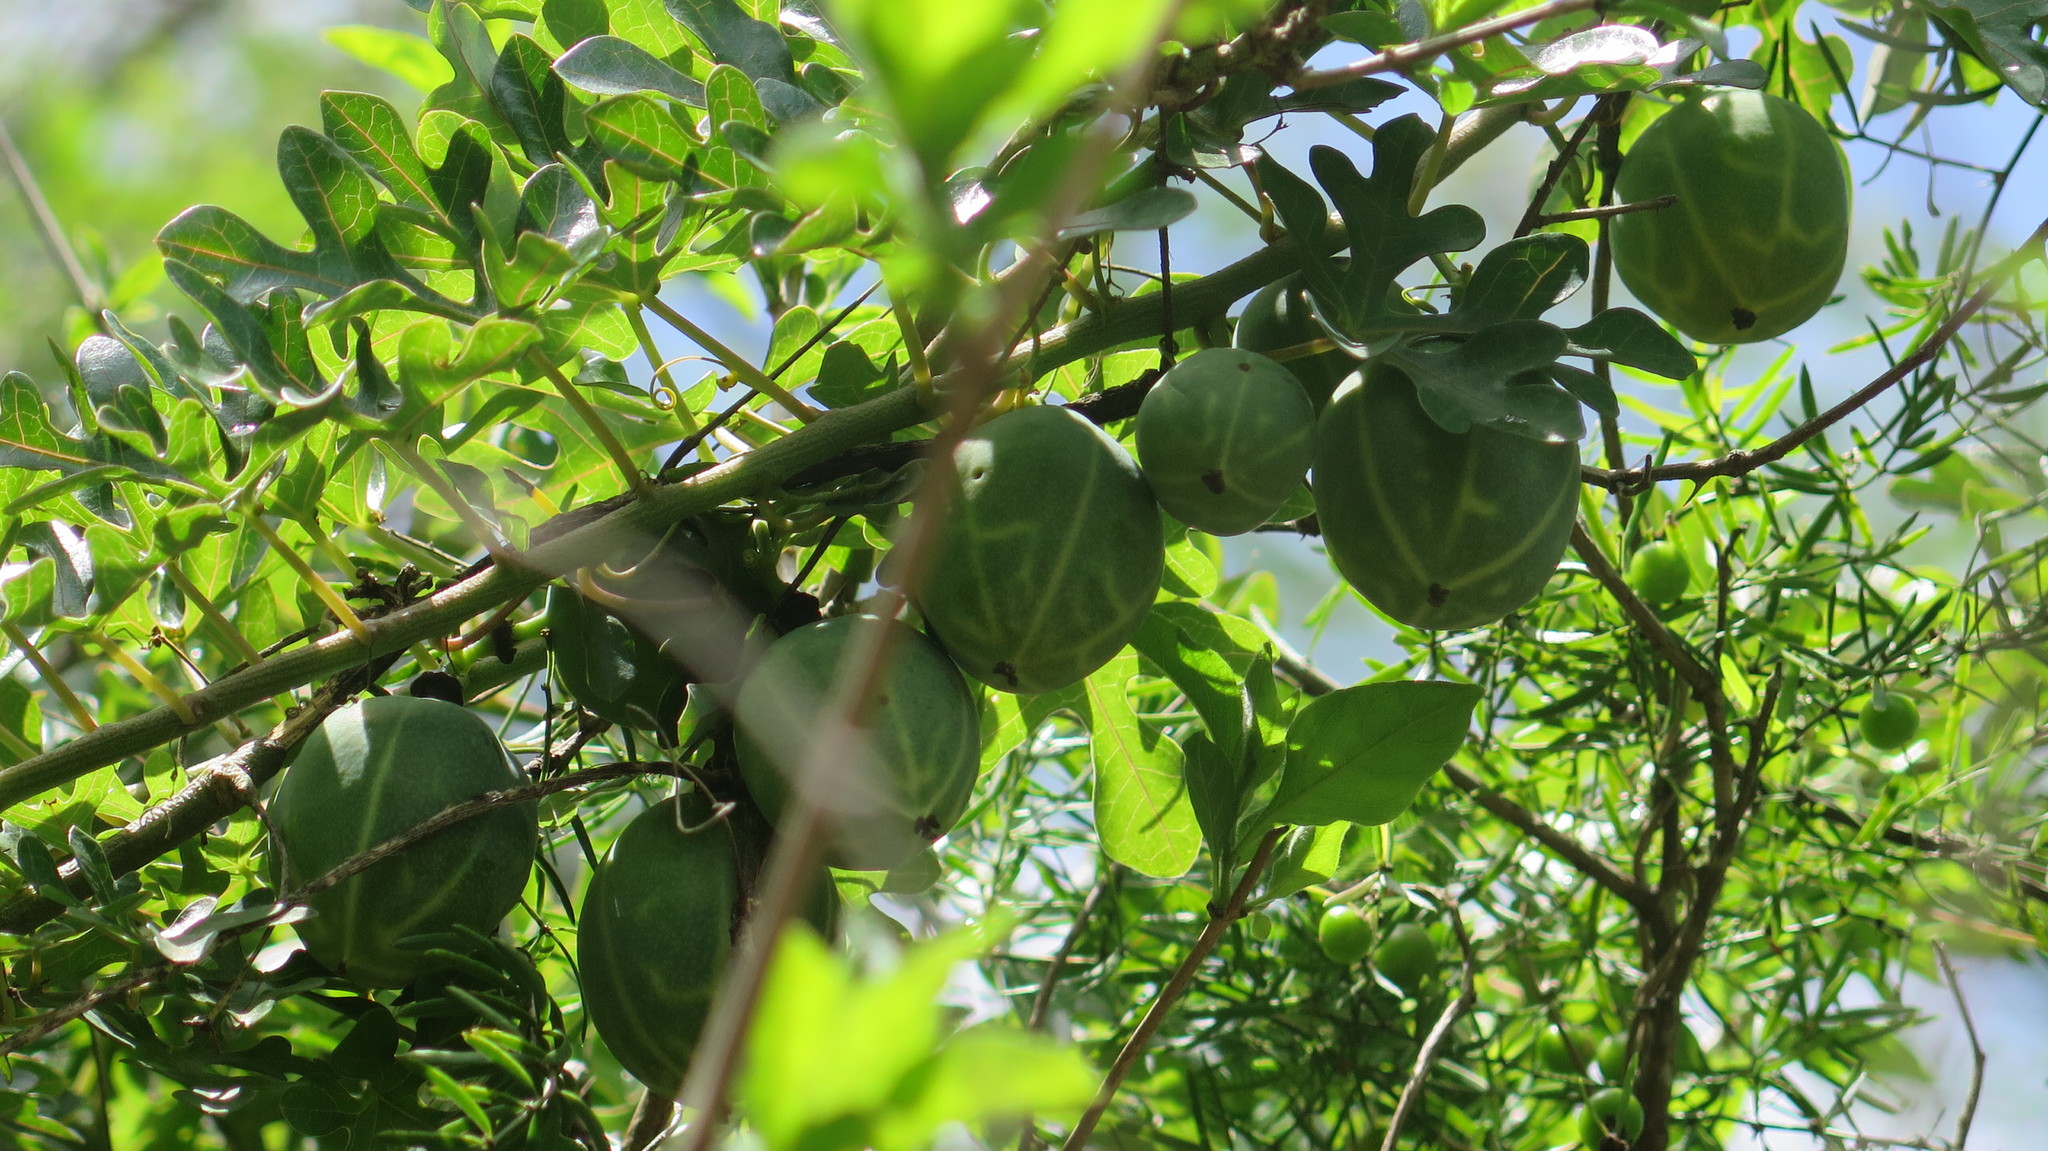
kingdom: Plantae
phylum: Tracheophyta
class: Magnoliopsida
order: Cucurbitales
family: Cucurbitaceae
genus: Diplocyclos
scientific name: Diplocyclos palmatus
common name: Striped-cucumber
